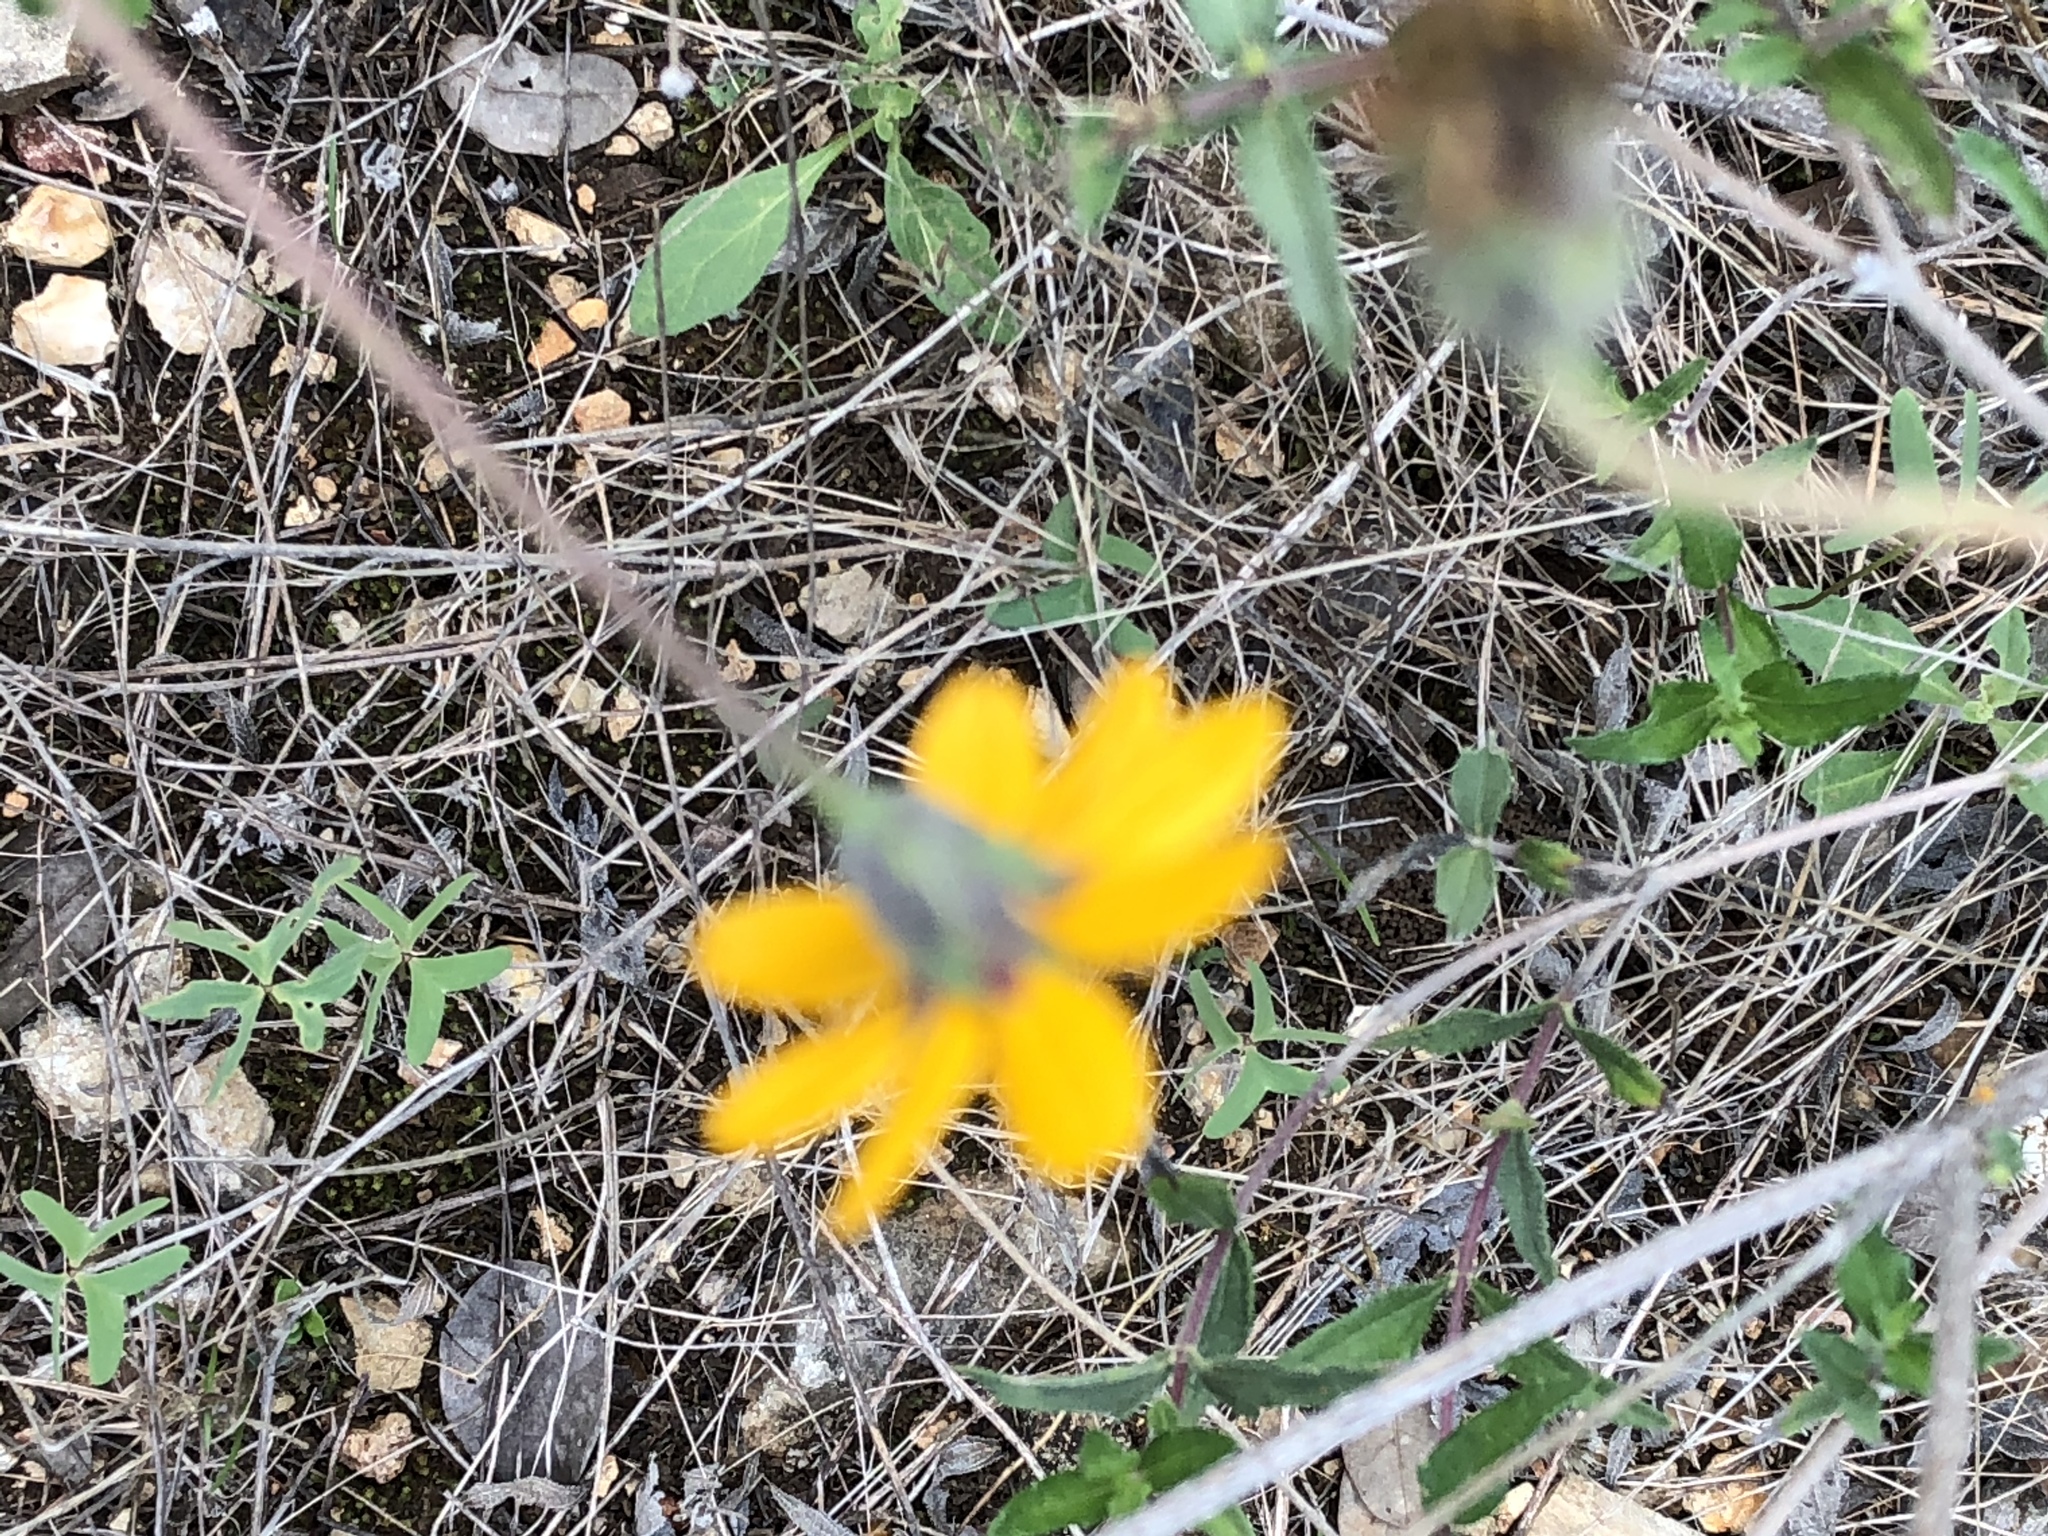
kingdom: Plantae
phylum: Tracheophyta
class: Magnoliopsida
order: Asterales
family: Asteraceae
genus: Wedelia
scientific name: Wedelia acapulcensis
